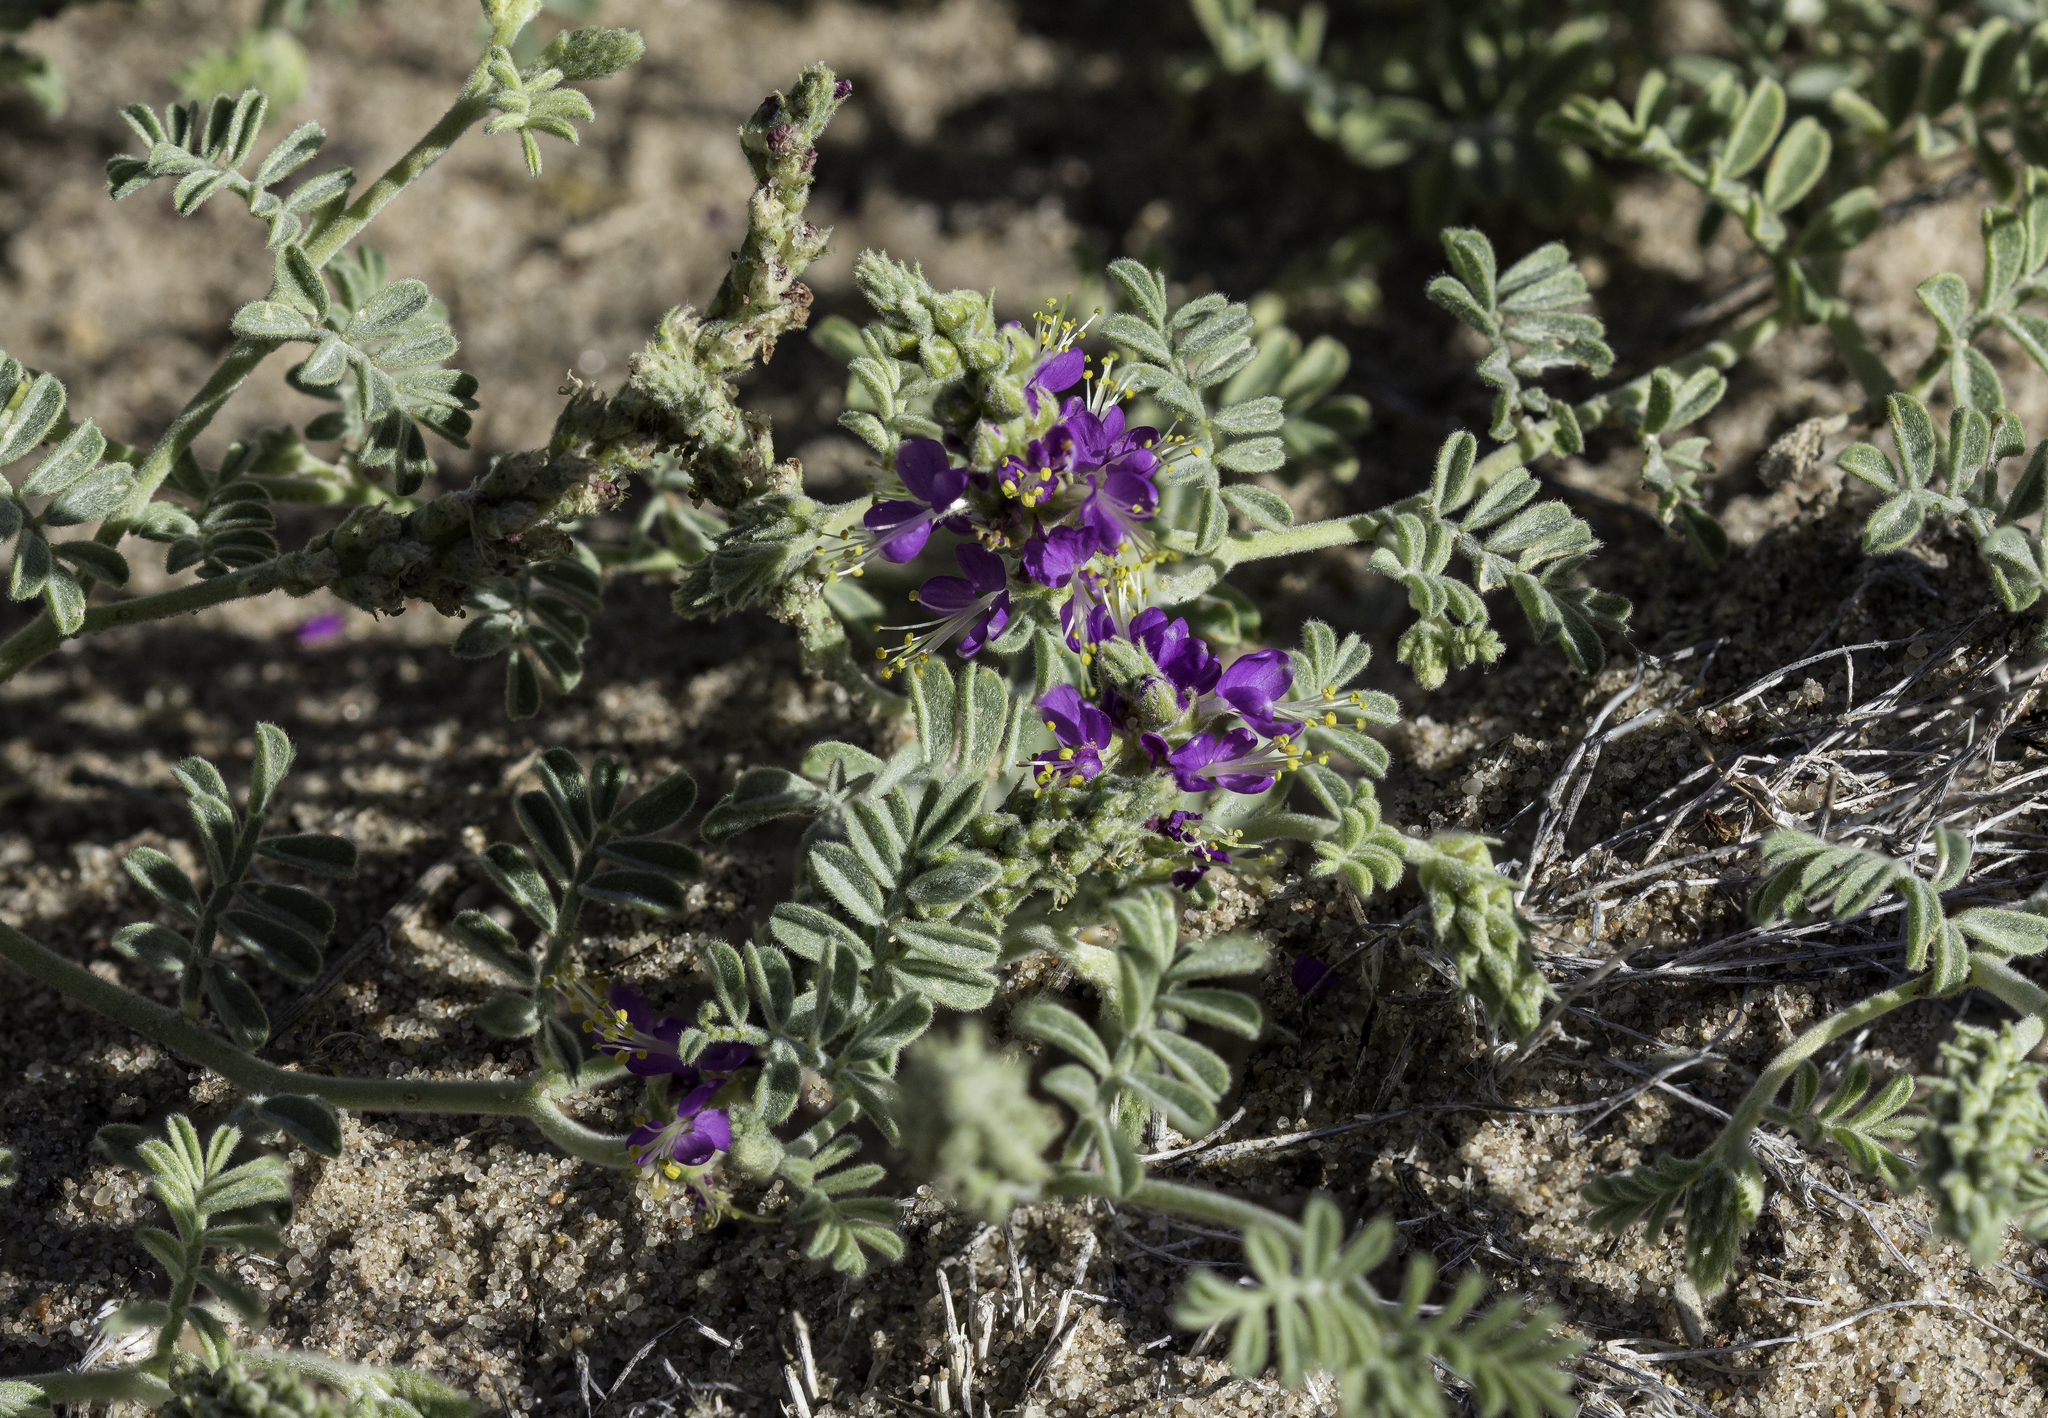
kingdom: Plantae
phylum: Tracheophyta
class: Magnoliopsida
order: Fabales
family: Fabaceae
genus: Dalea
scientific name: Dalea lanata
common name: Woolly dalea
